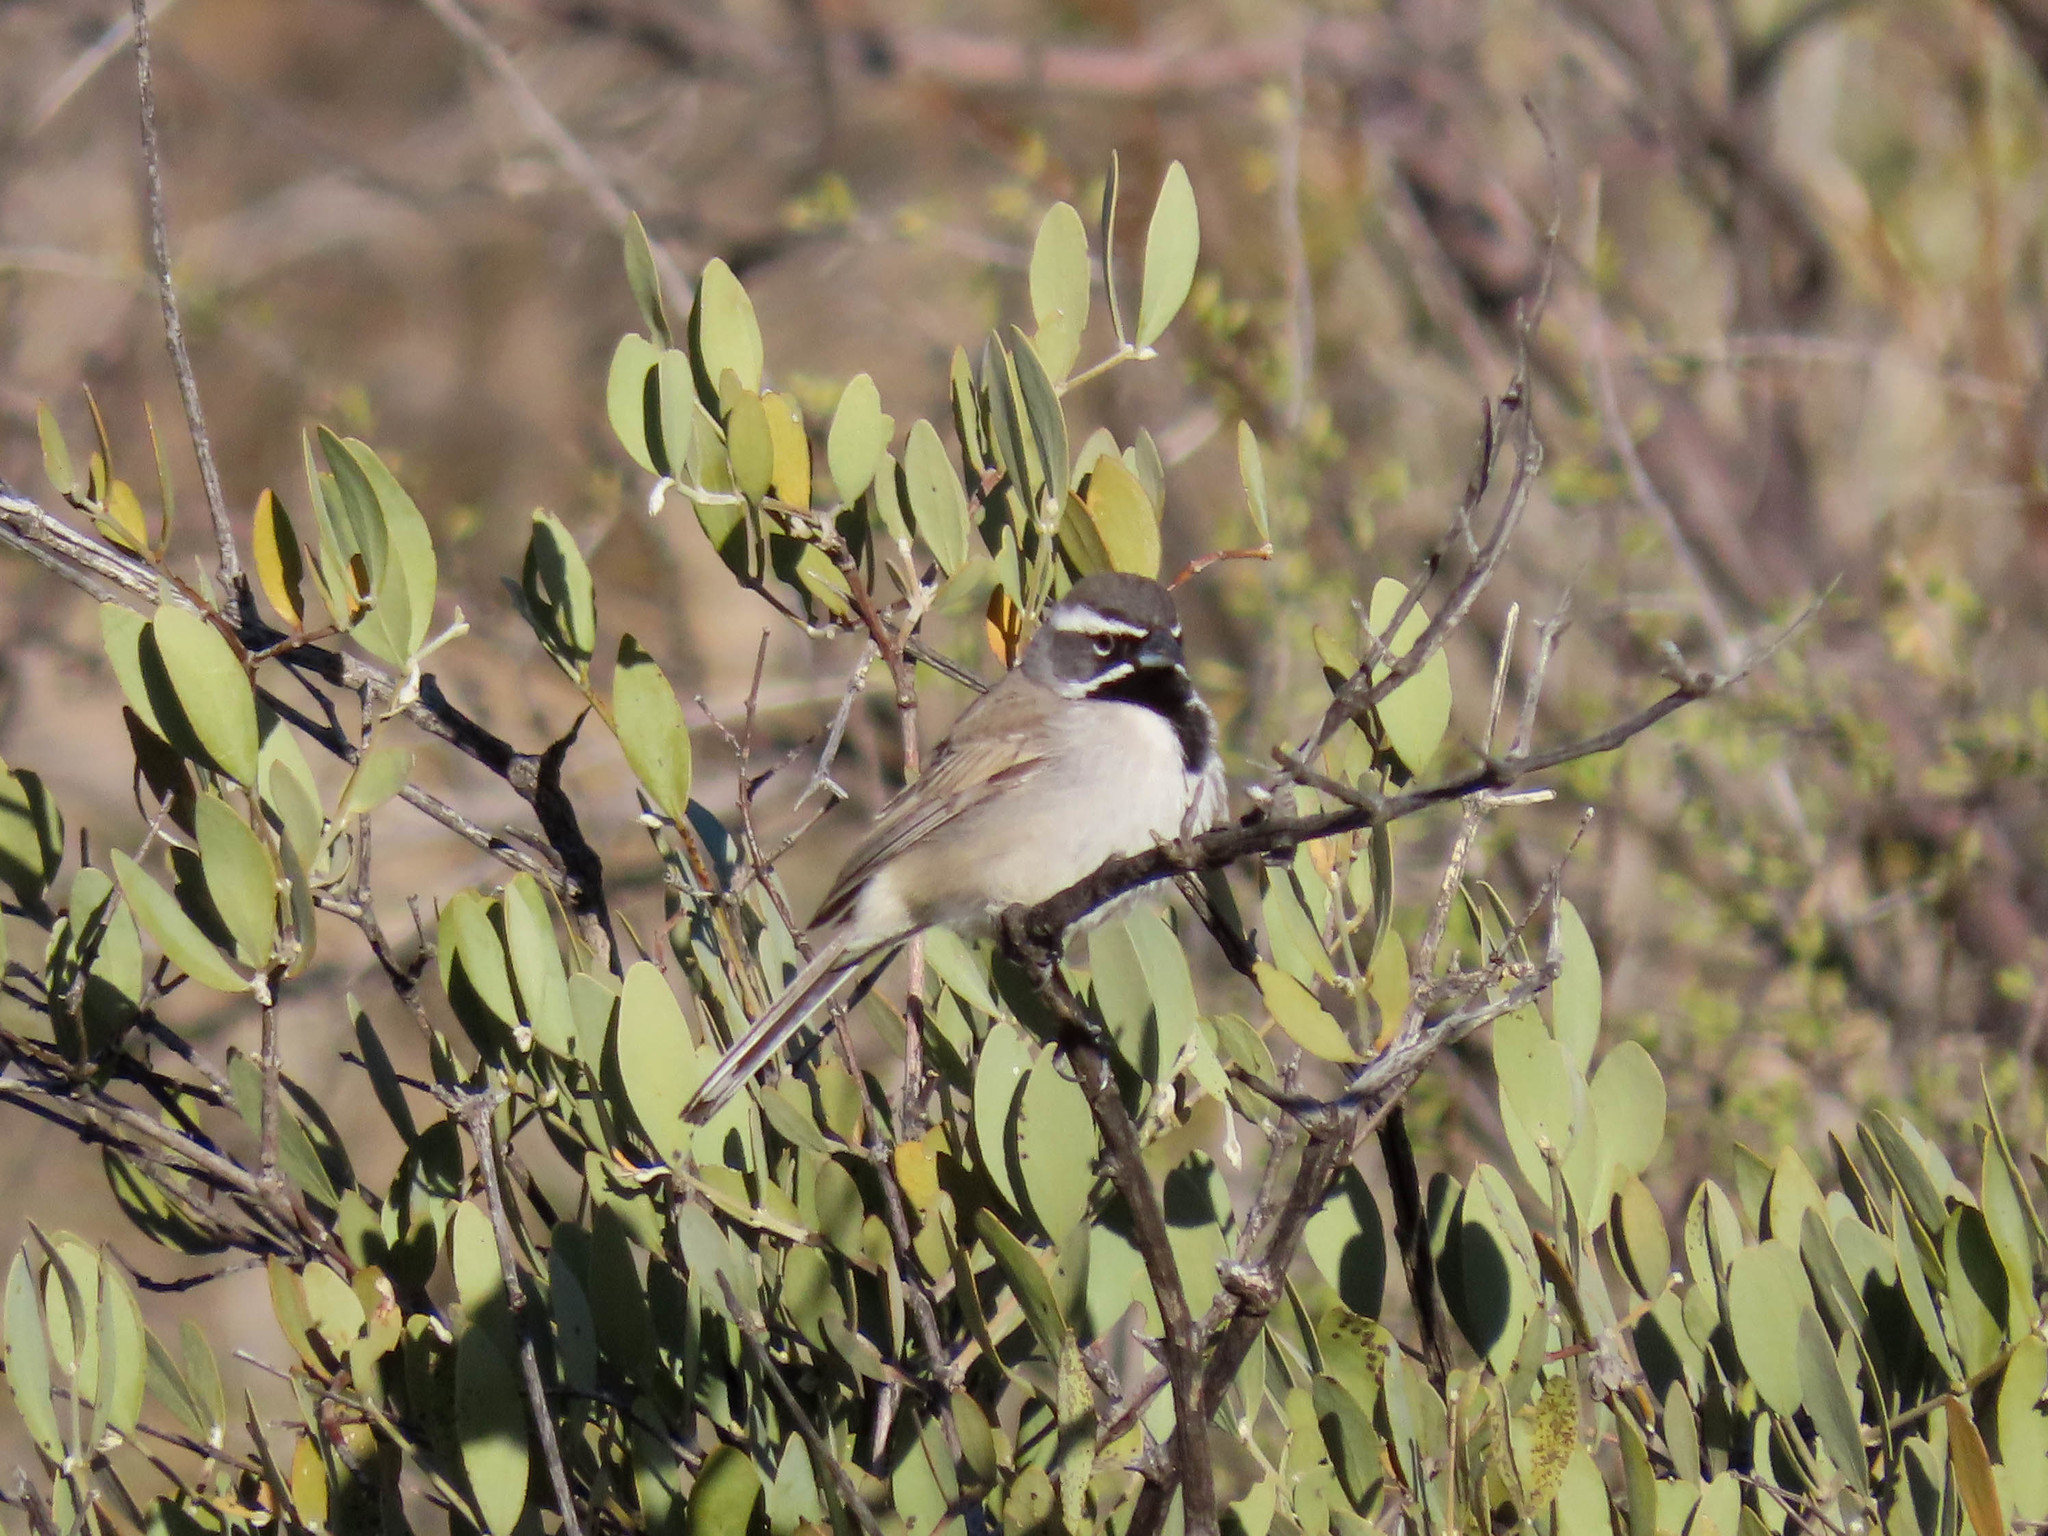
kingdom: Animalia
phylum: Chordata
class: Aves
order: Passeriformes
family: Passerellidae
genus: Amphispiza
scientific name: Amphispiza bilineata
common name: Black-throated sparrow
